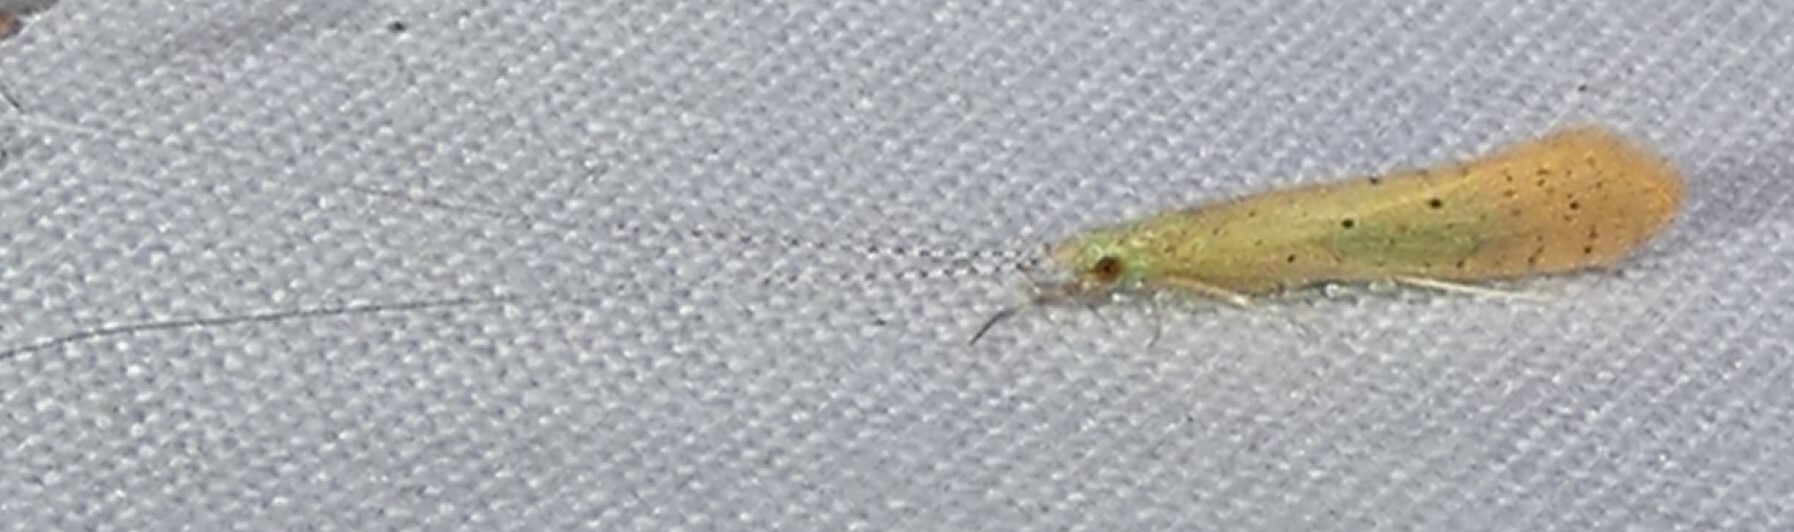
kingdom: Animalia
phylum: Arthropoda
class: Insecta
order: Trichoptera
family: Leptoceridae
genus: Nectopsyche
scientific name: Nectopsyche pavida
